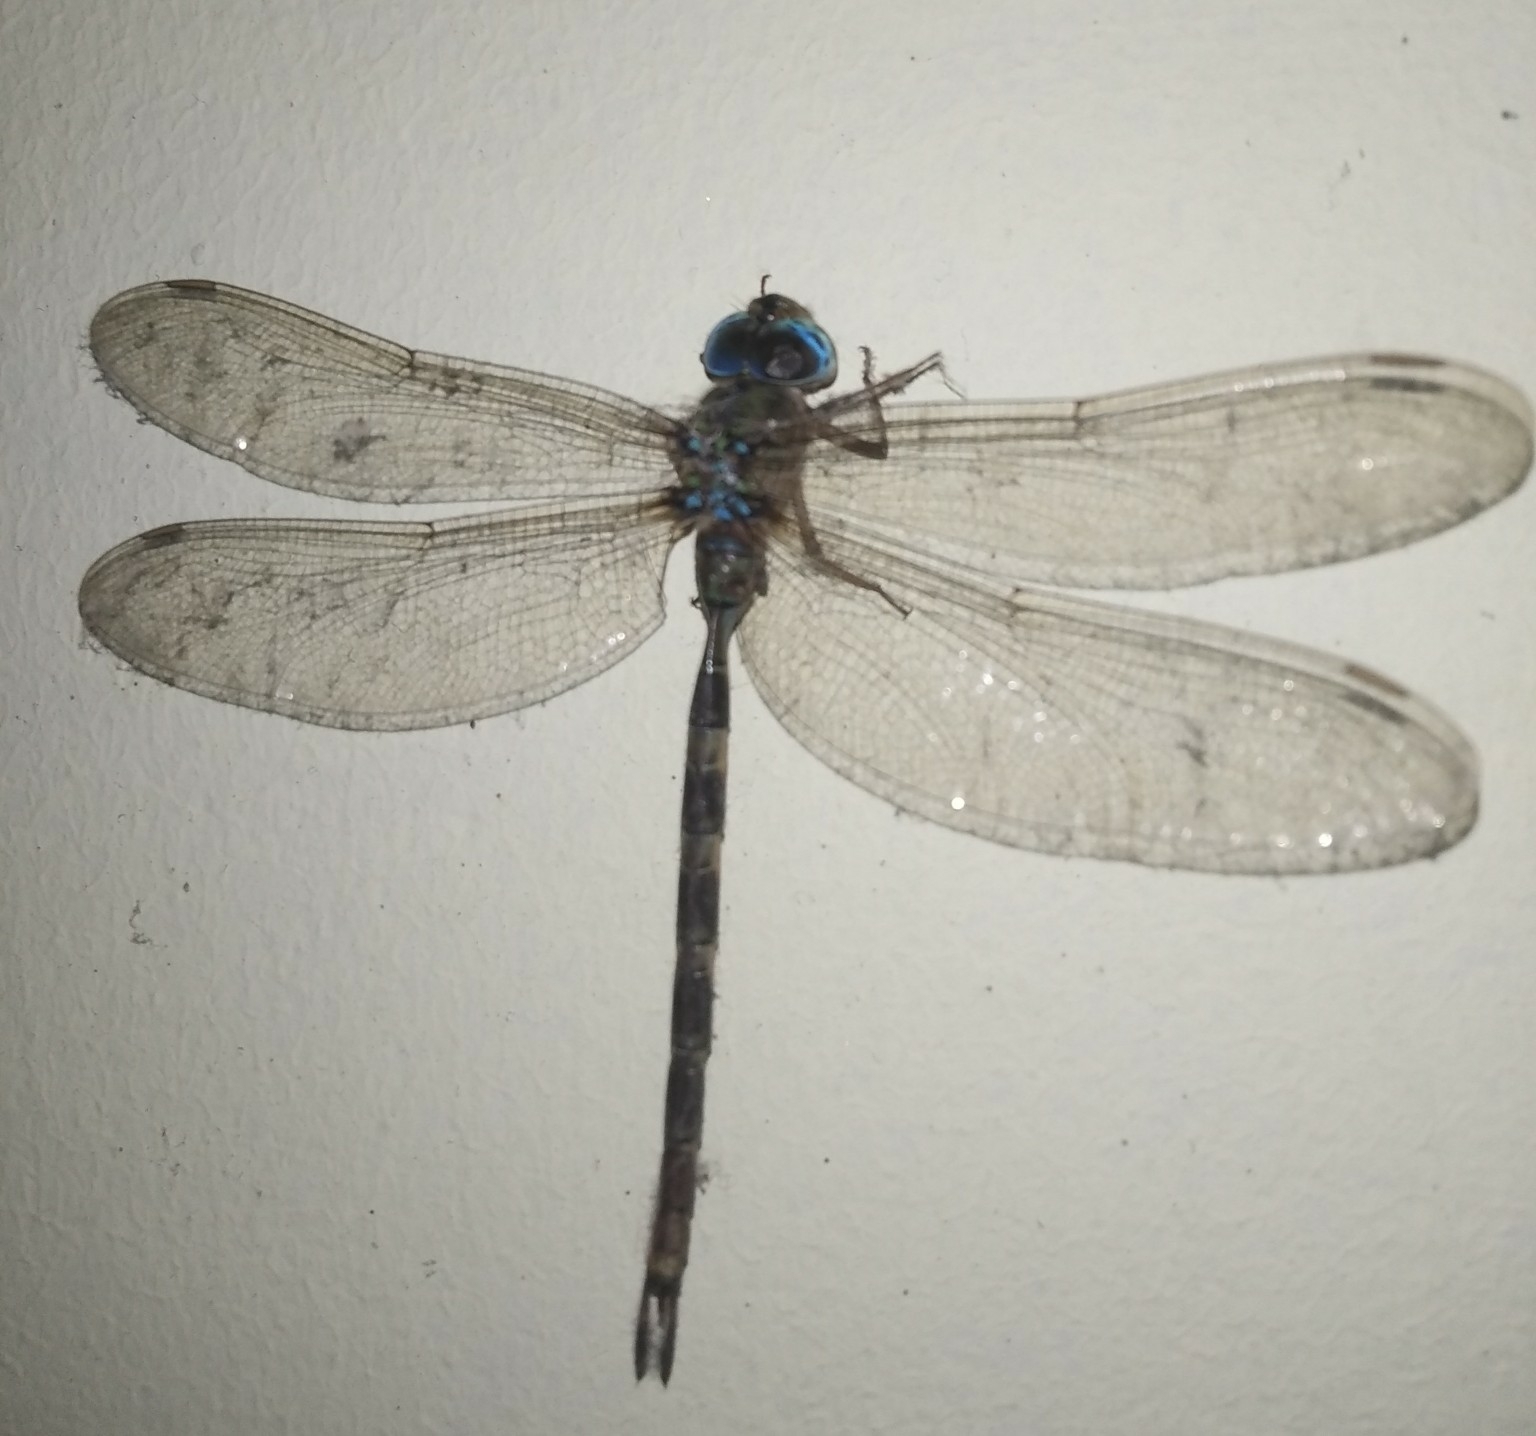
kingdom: Animalia
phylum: Arthropoda
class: Insecta
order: Odonata
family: Aeshnidae
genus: Gynacantha
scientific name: Gynacantha dravida
